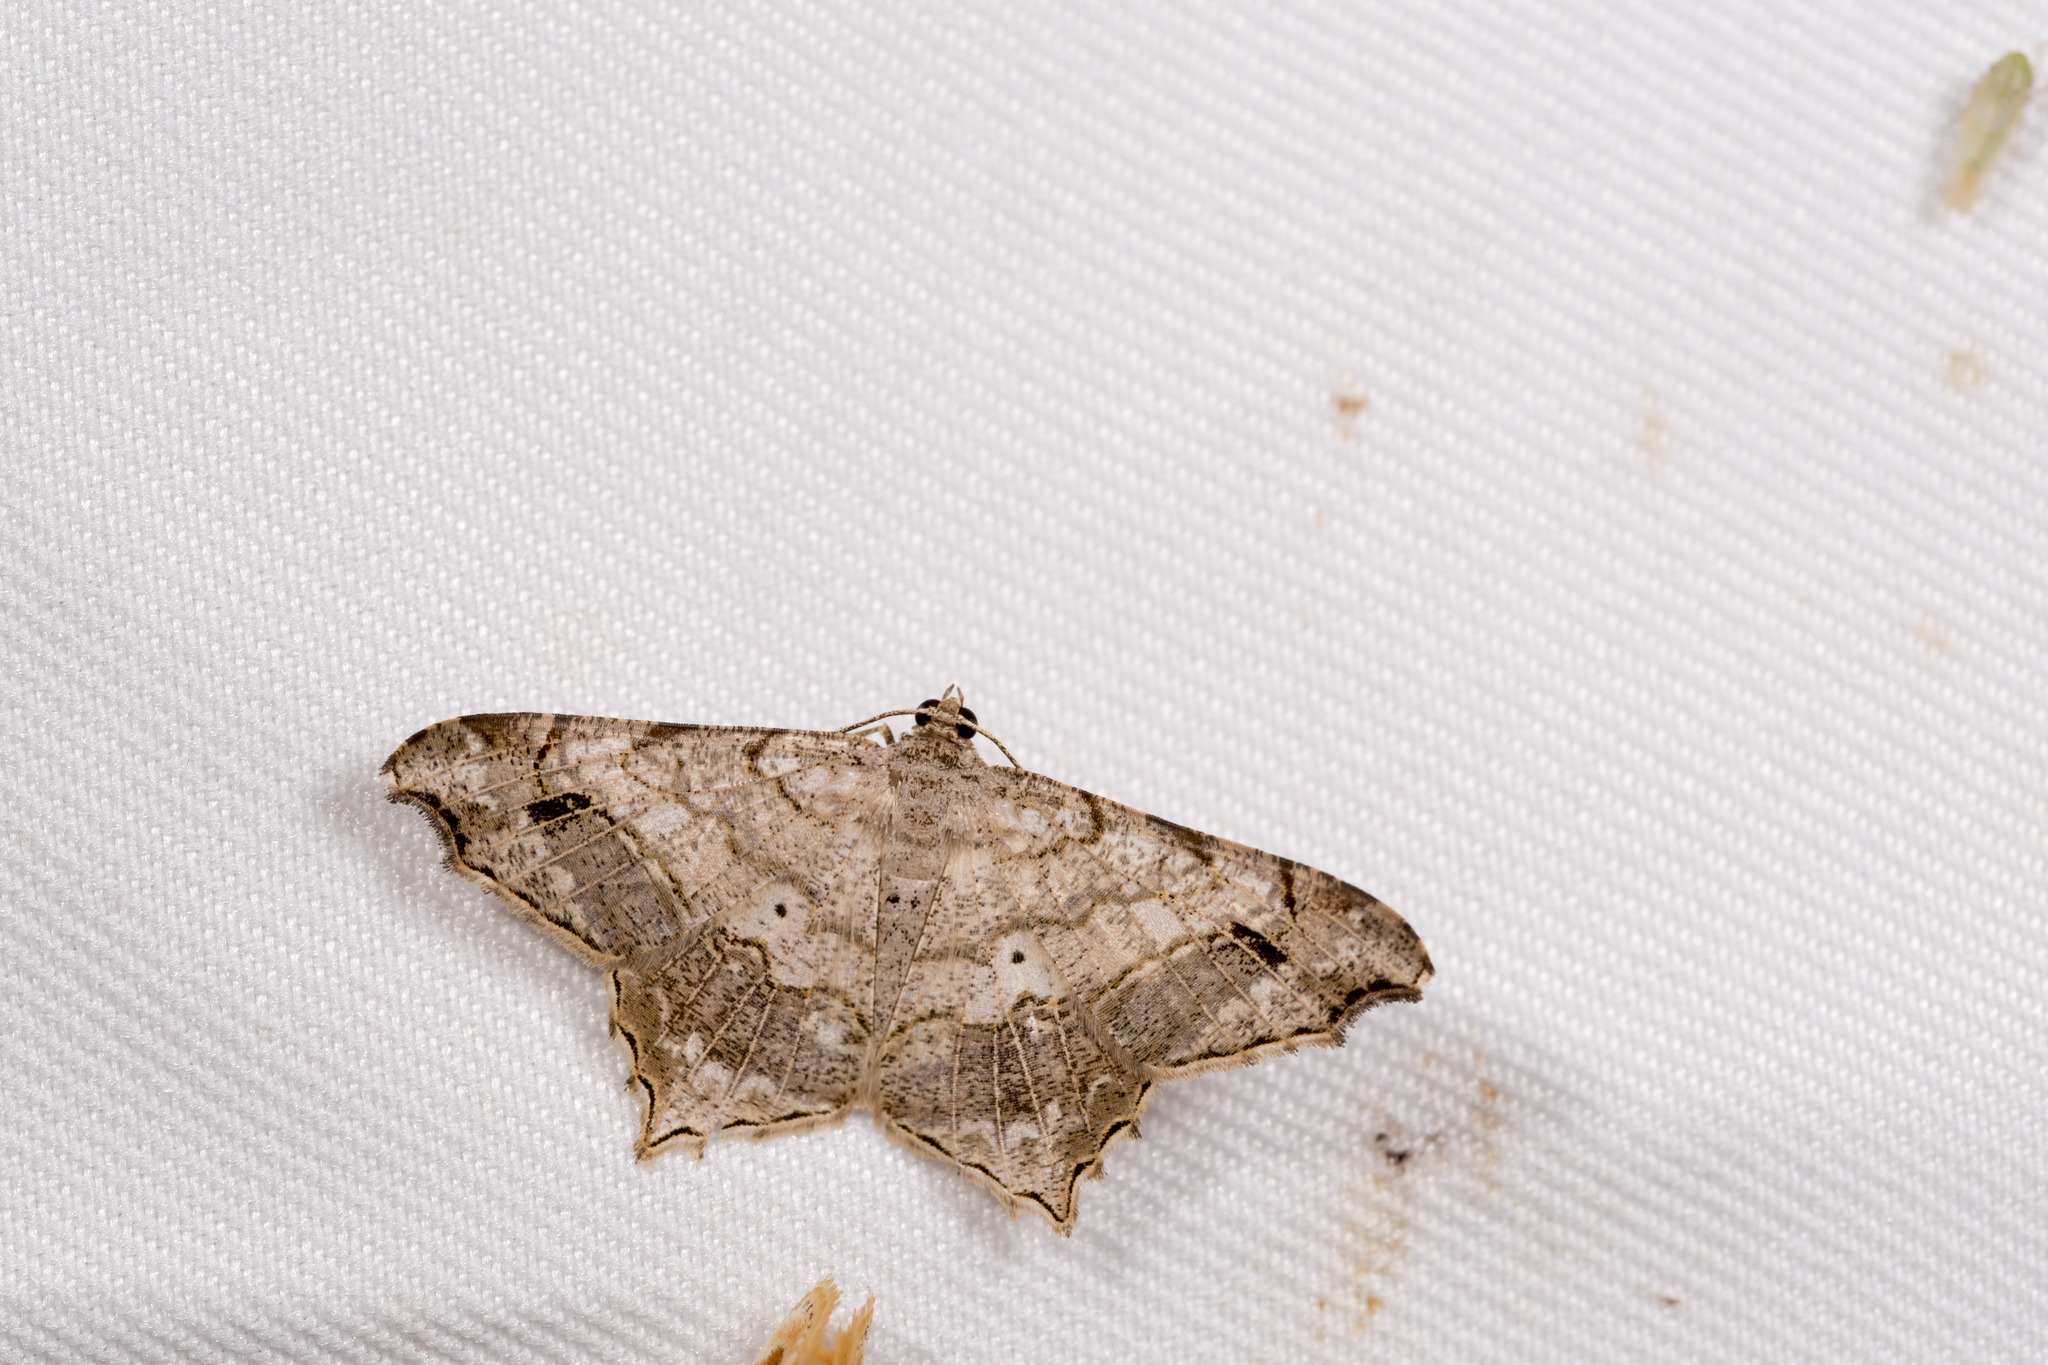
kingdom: Animalia
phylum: Arthropoda
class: Insecta
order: Lepidoptera
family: Geometridae
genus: Chiasmia
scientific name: Chiasmia emersaria
